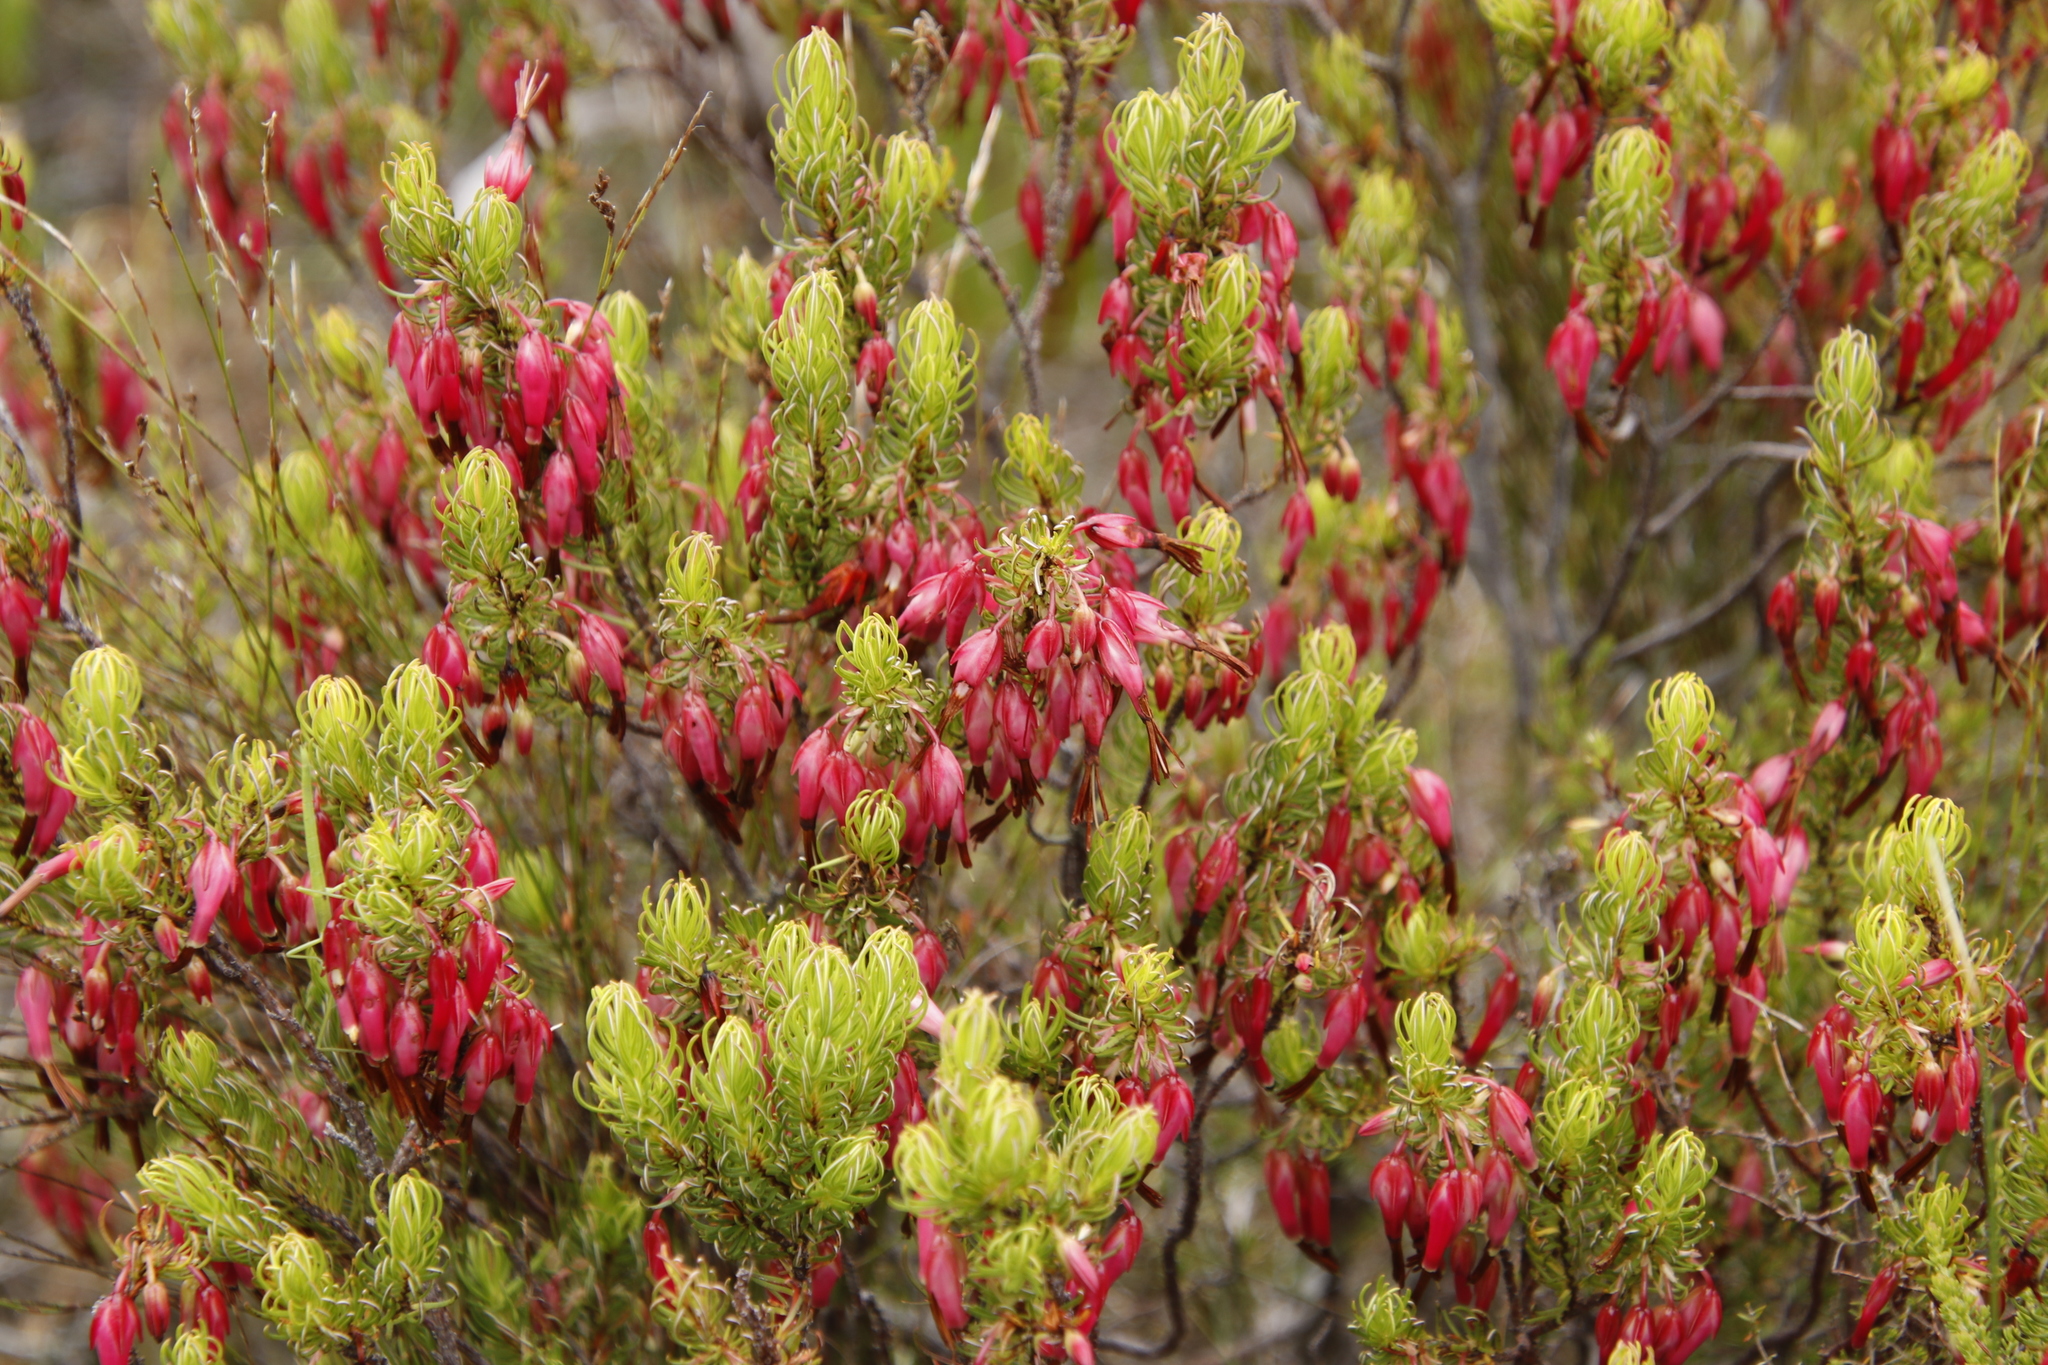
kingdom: Plantae
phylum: Tracheophyta
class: Magnoliopsida
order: Ericales
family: Ericaceae
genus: Erica
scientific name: Erica plukenetii
